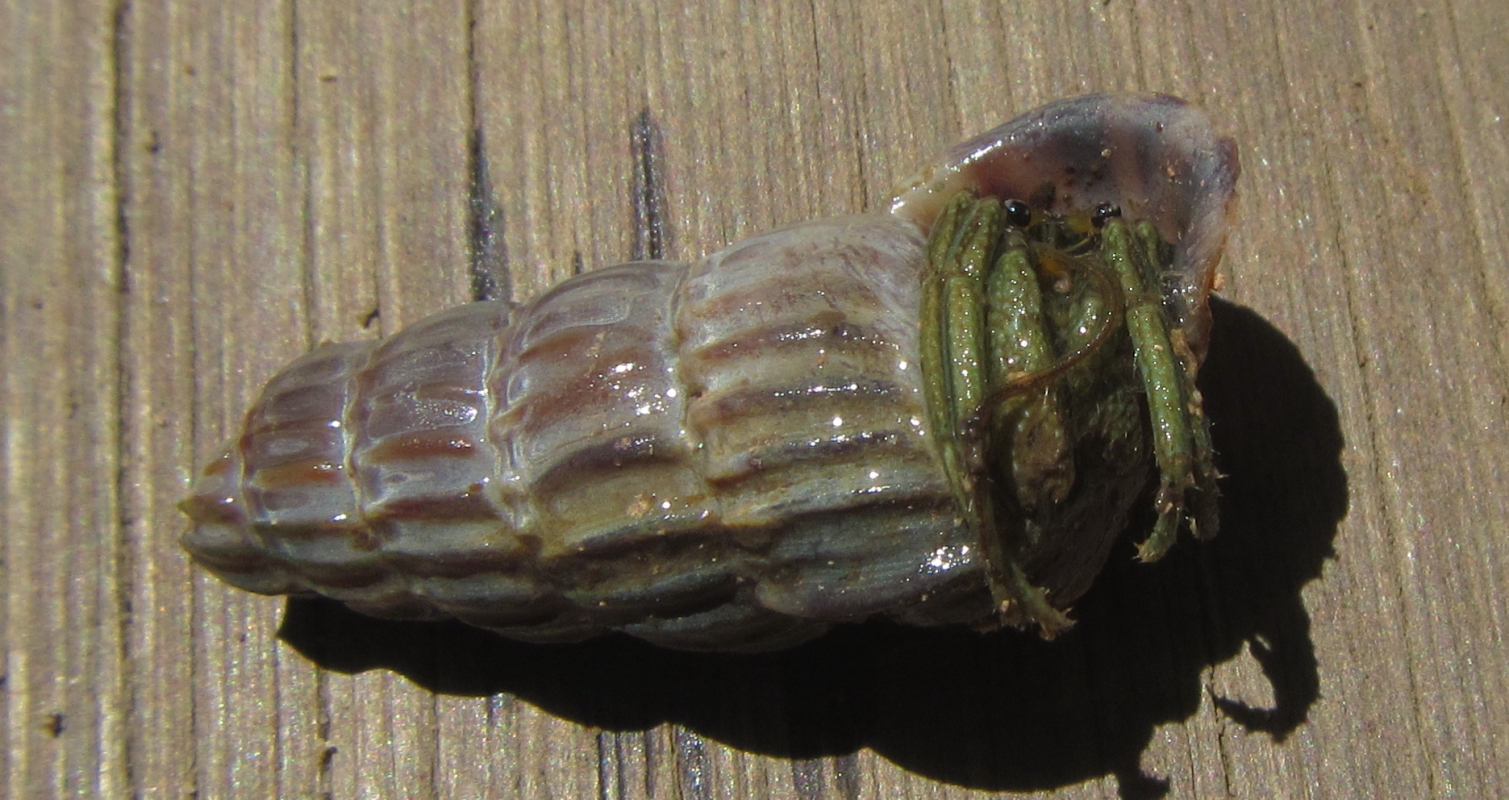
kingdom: Animalia
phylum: Mollusca
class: Gastropoda
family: Potamididae
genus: Cerithidea
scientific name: Cerithidea decollata
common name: Truncated mangrove snail
